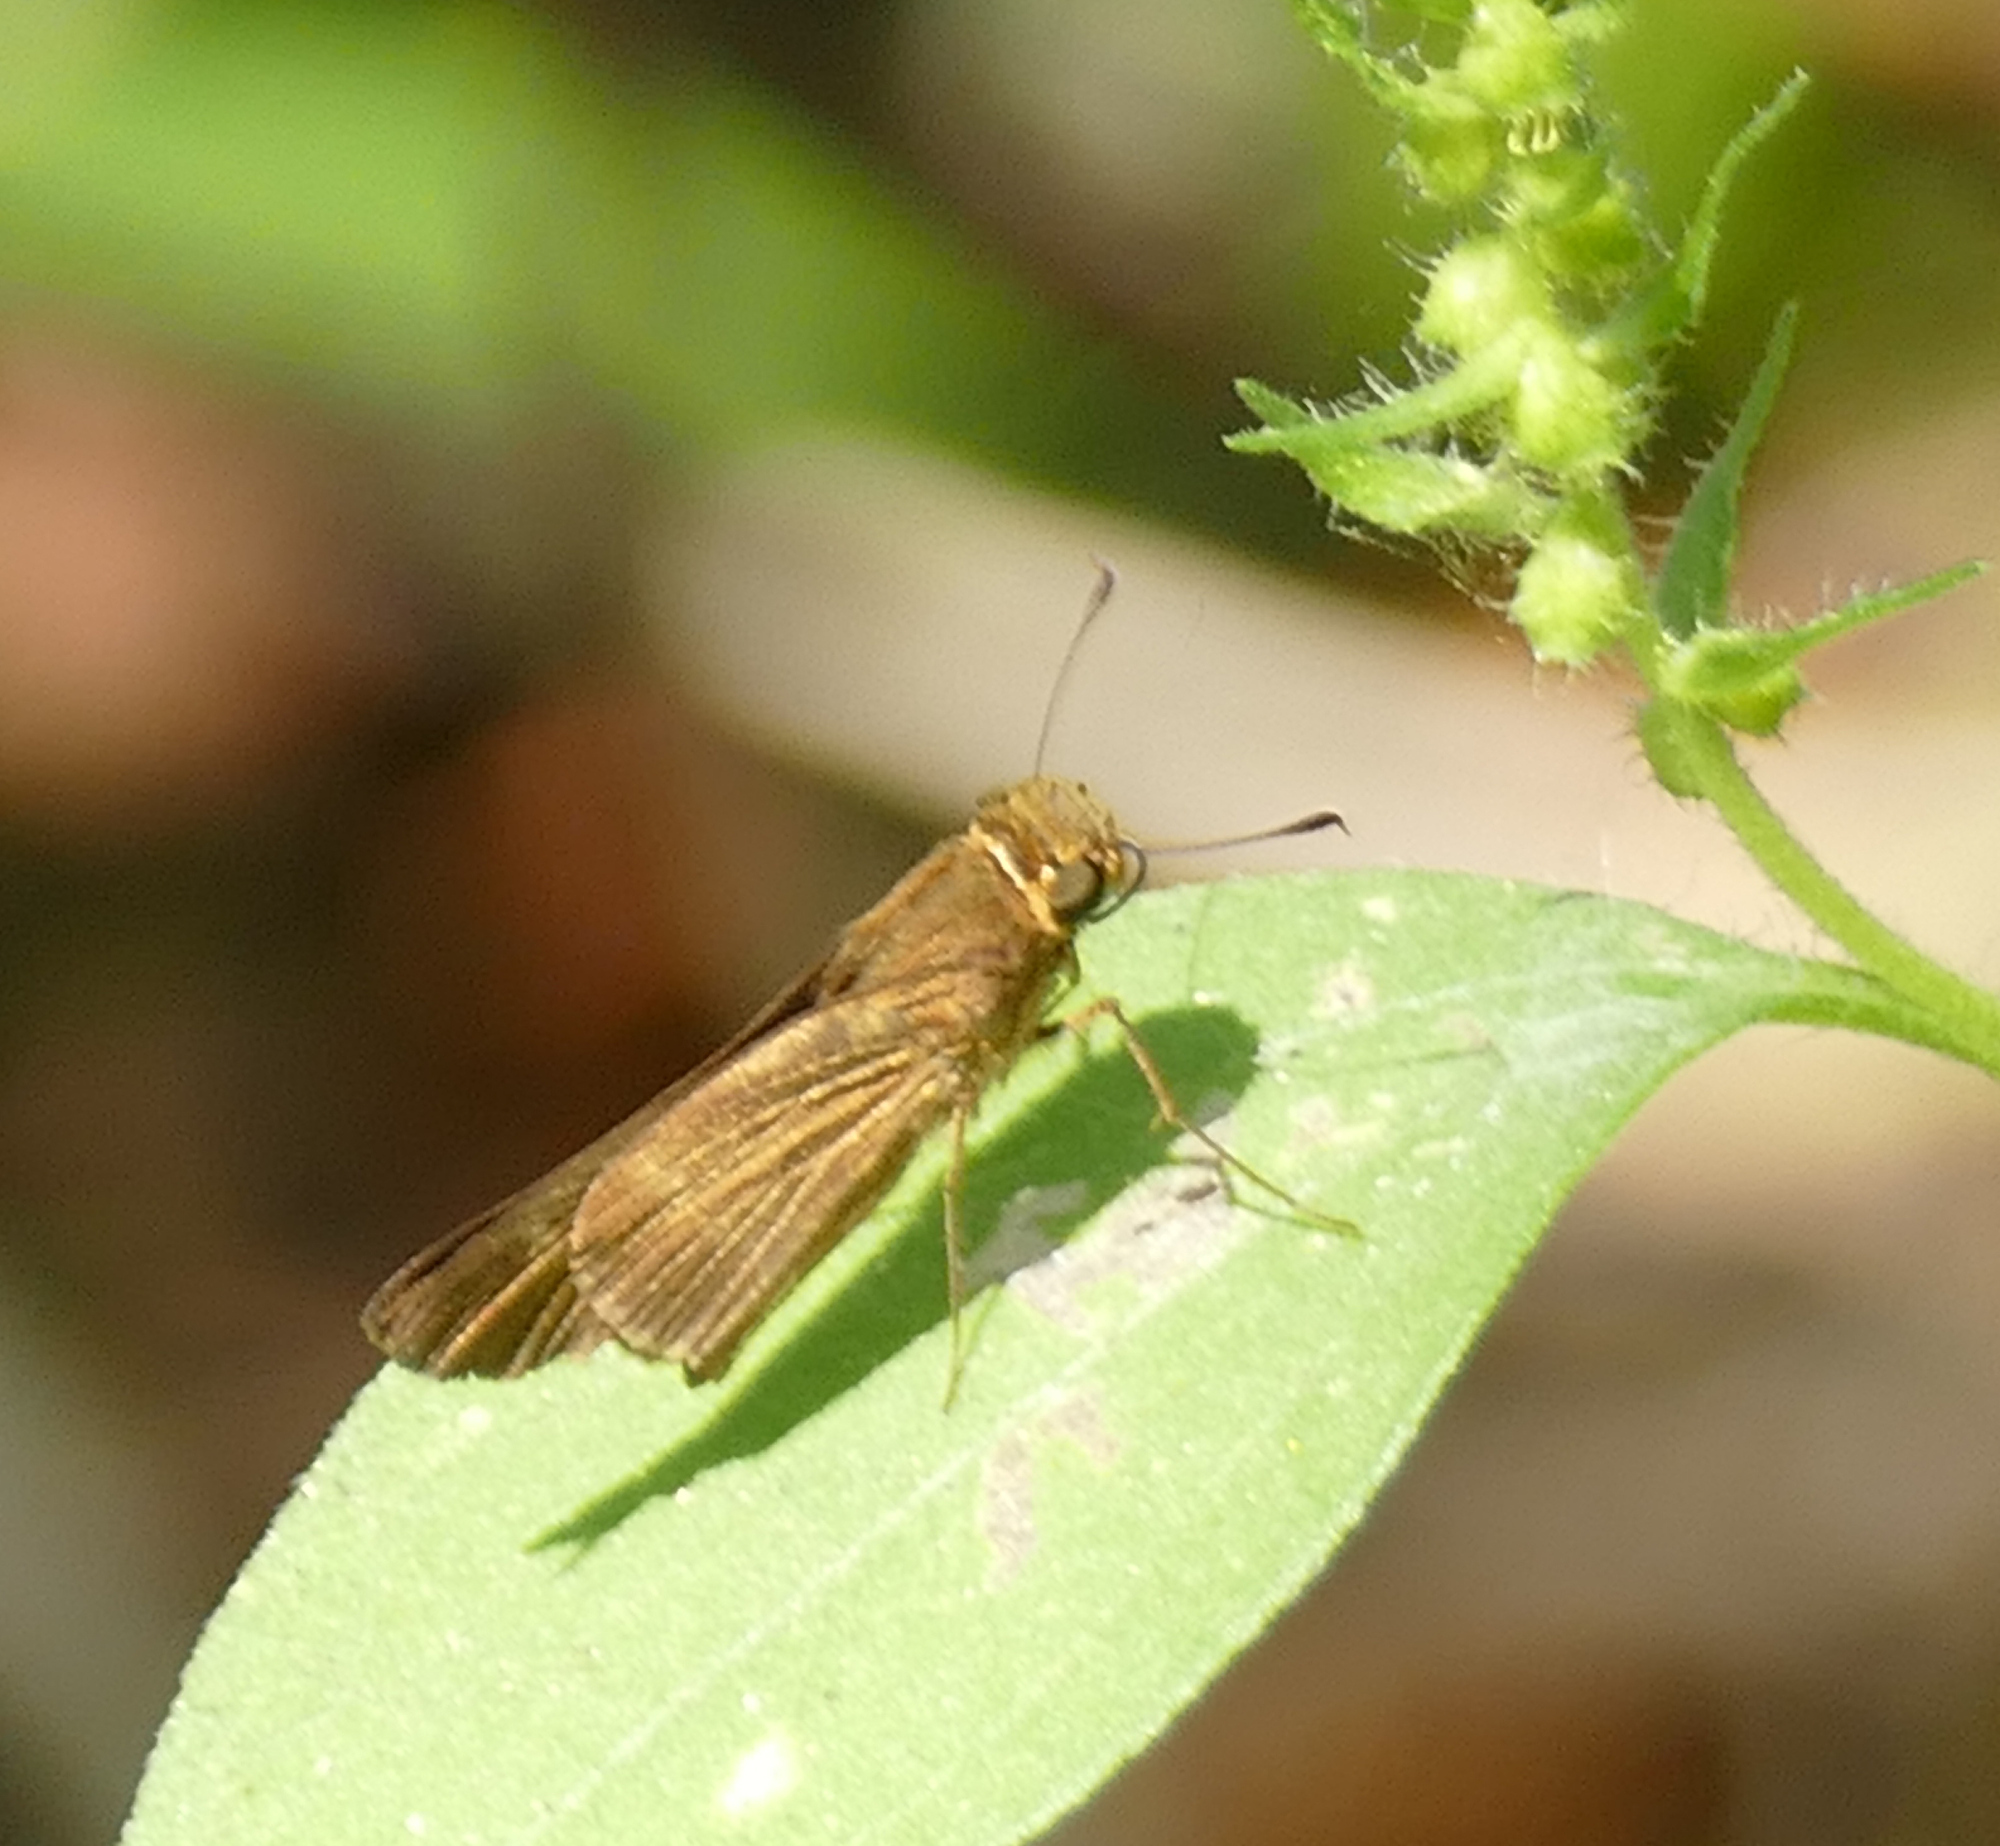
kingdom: Animalia
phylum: Arthropoda
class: Insecta
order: Lepidoptera
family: Hesperiidae
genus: Panoquina
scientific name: Panoquina ocola
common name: Ocola skipper
